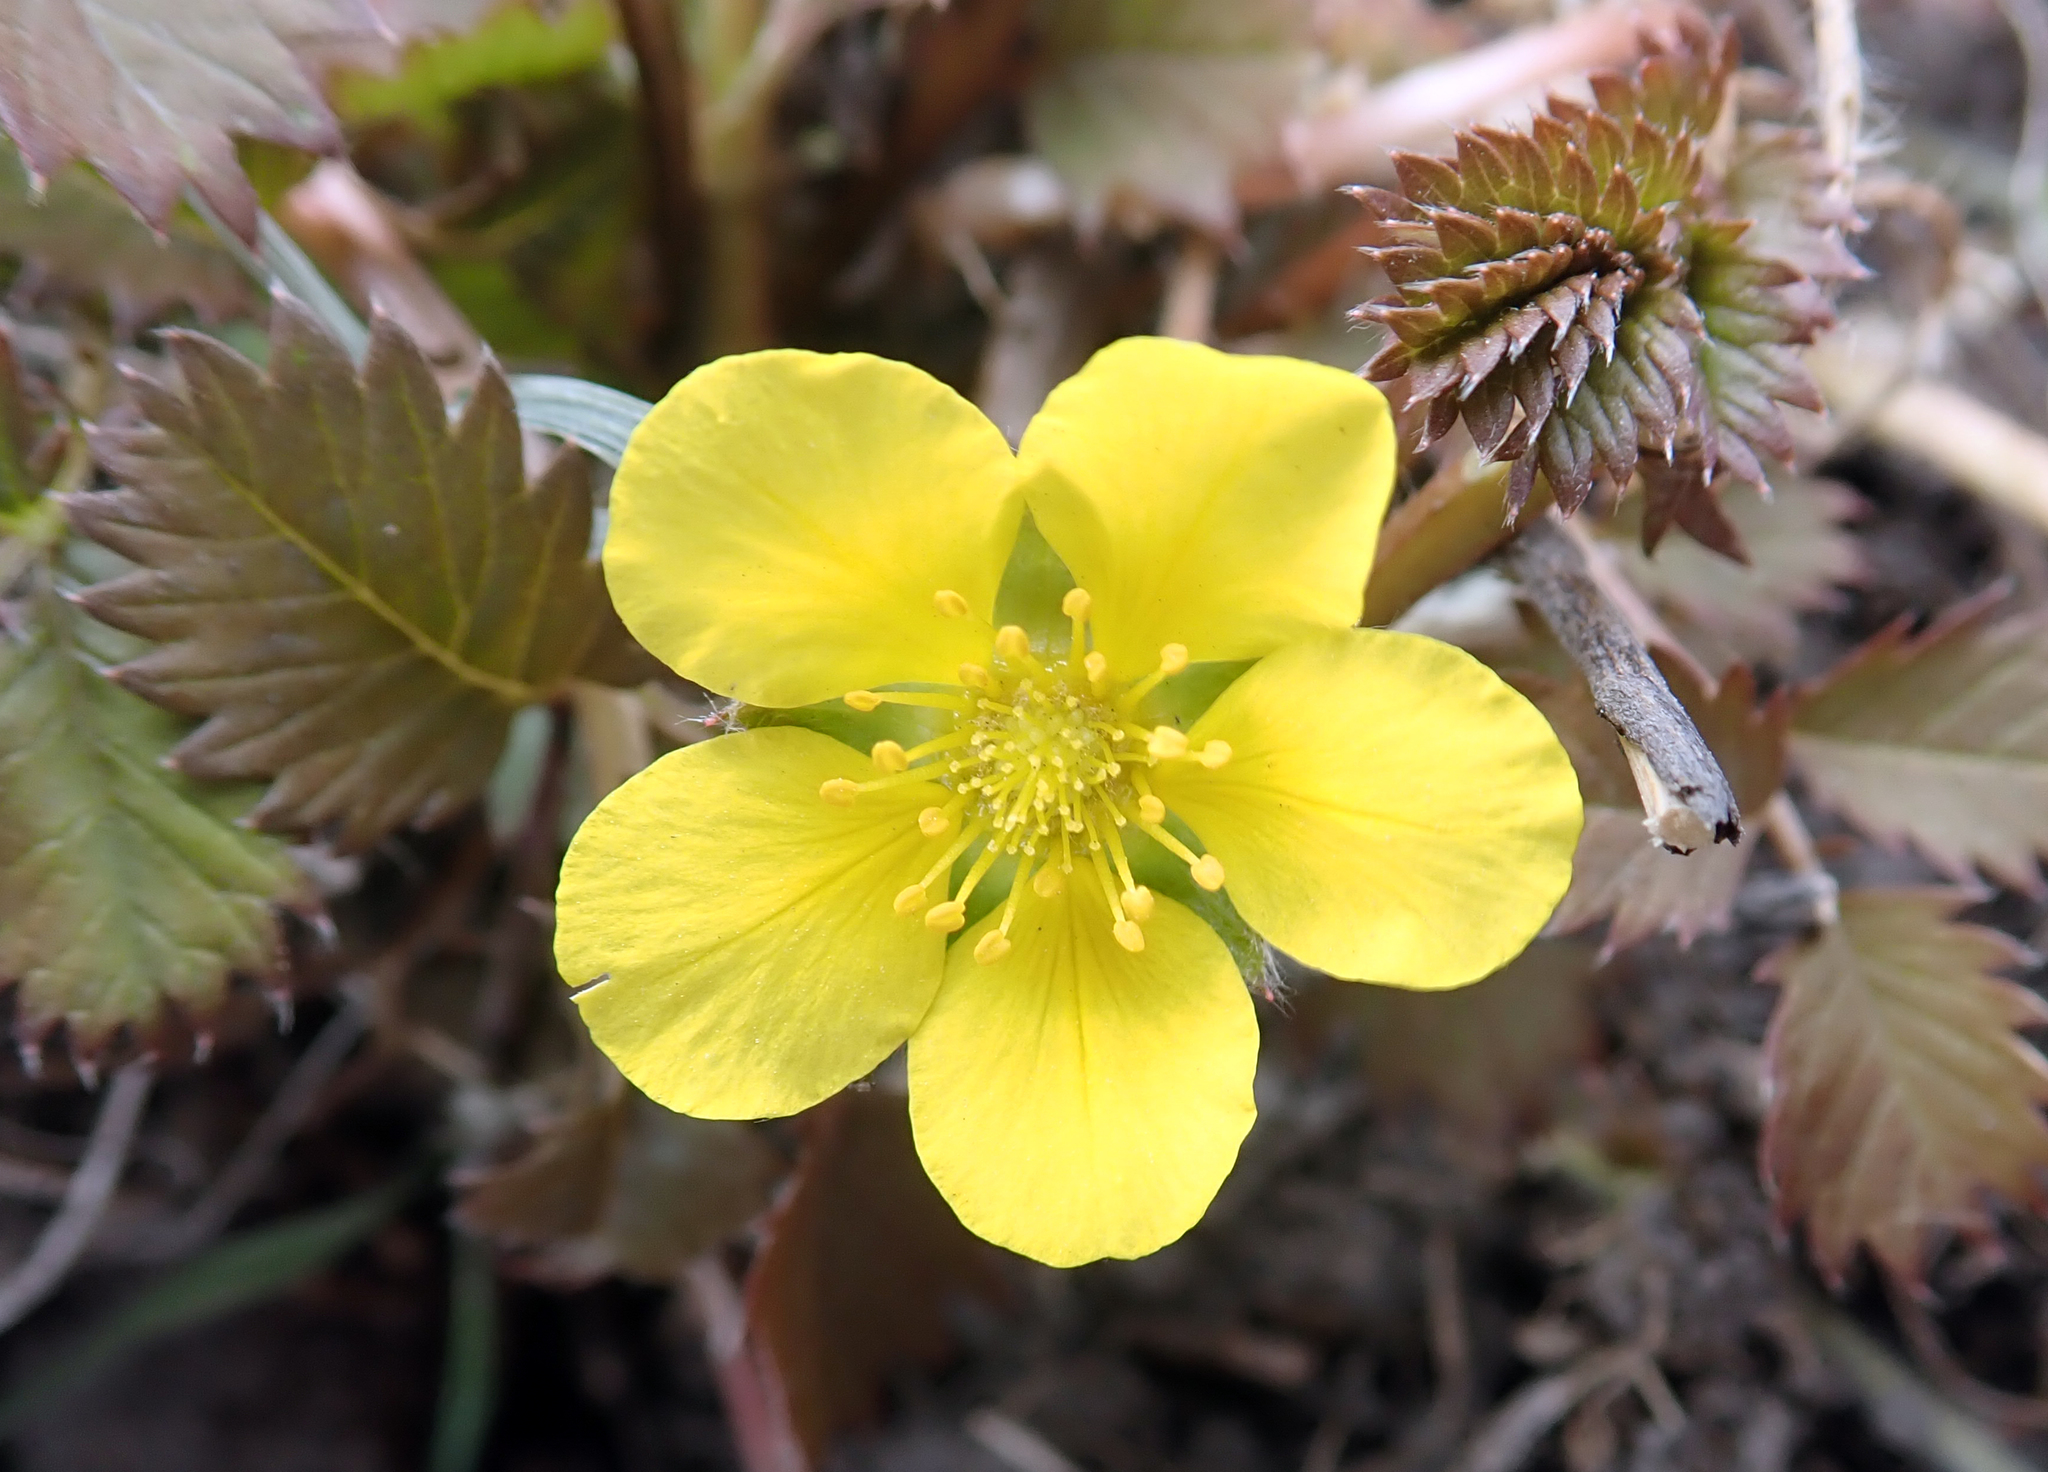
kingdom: Plantae
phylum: Tracheophyta
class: Magnoliopsida
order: Rosales
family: Rosaceae
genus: Argentina
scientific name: Argentina anserinoides
